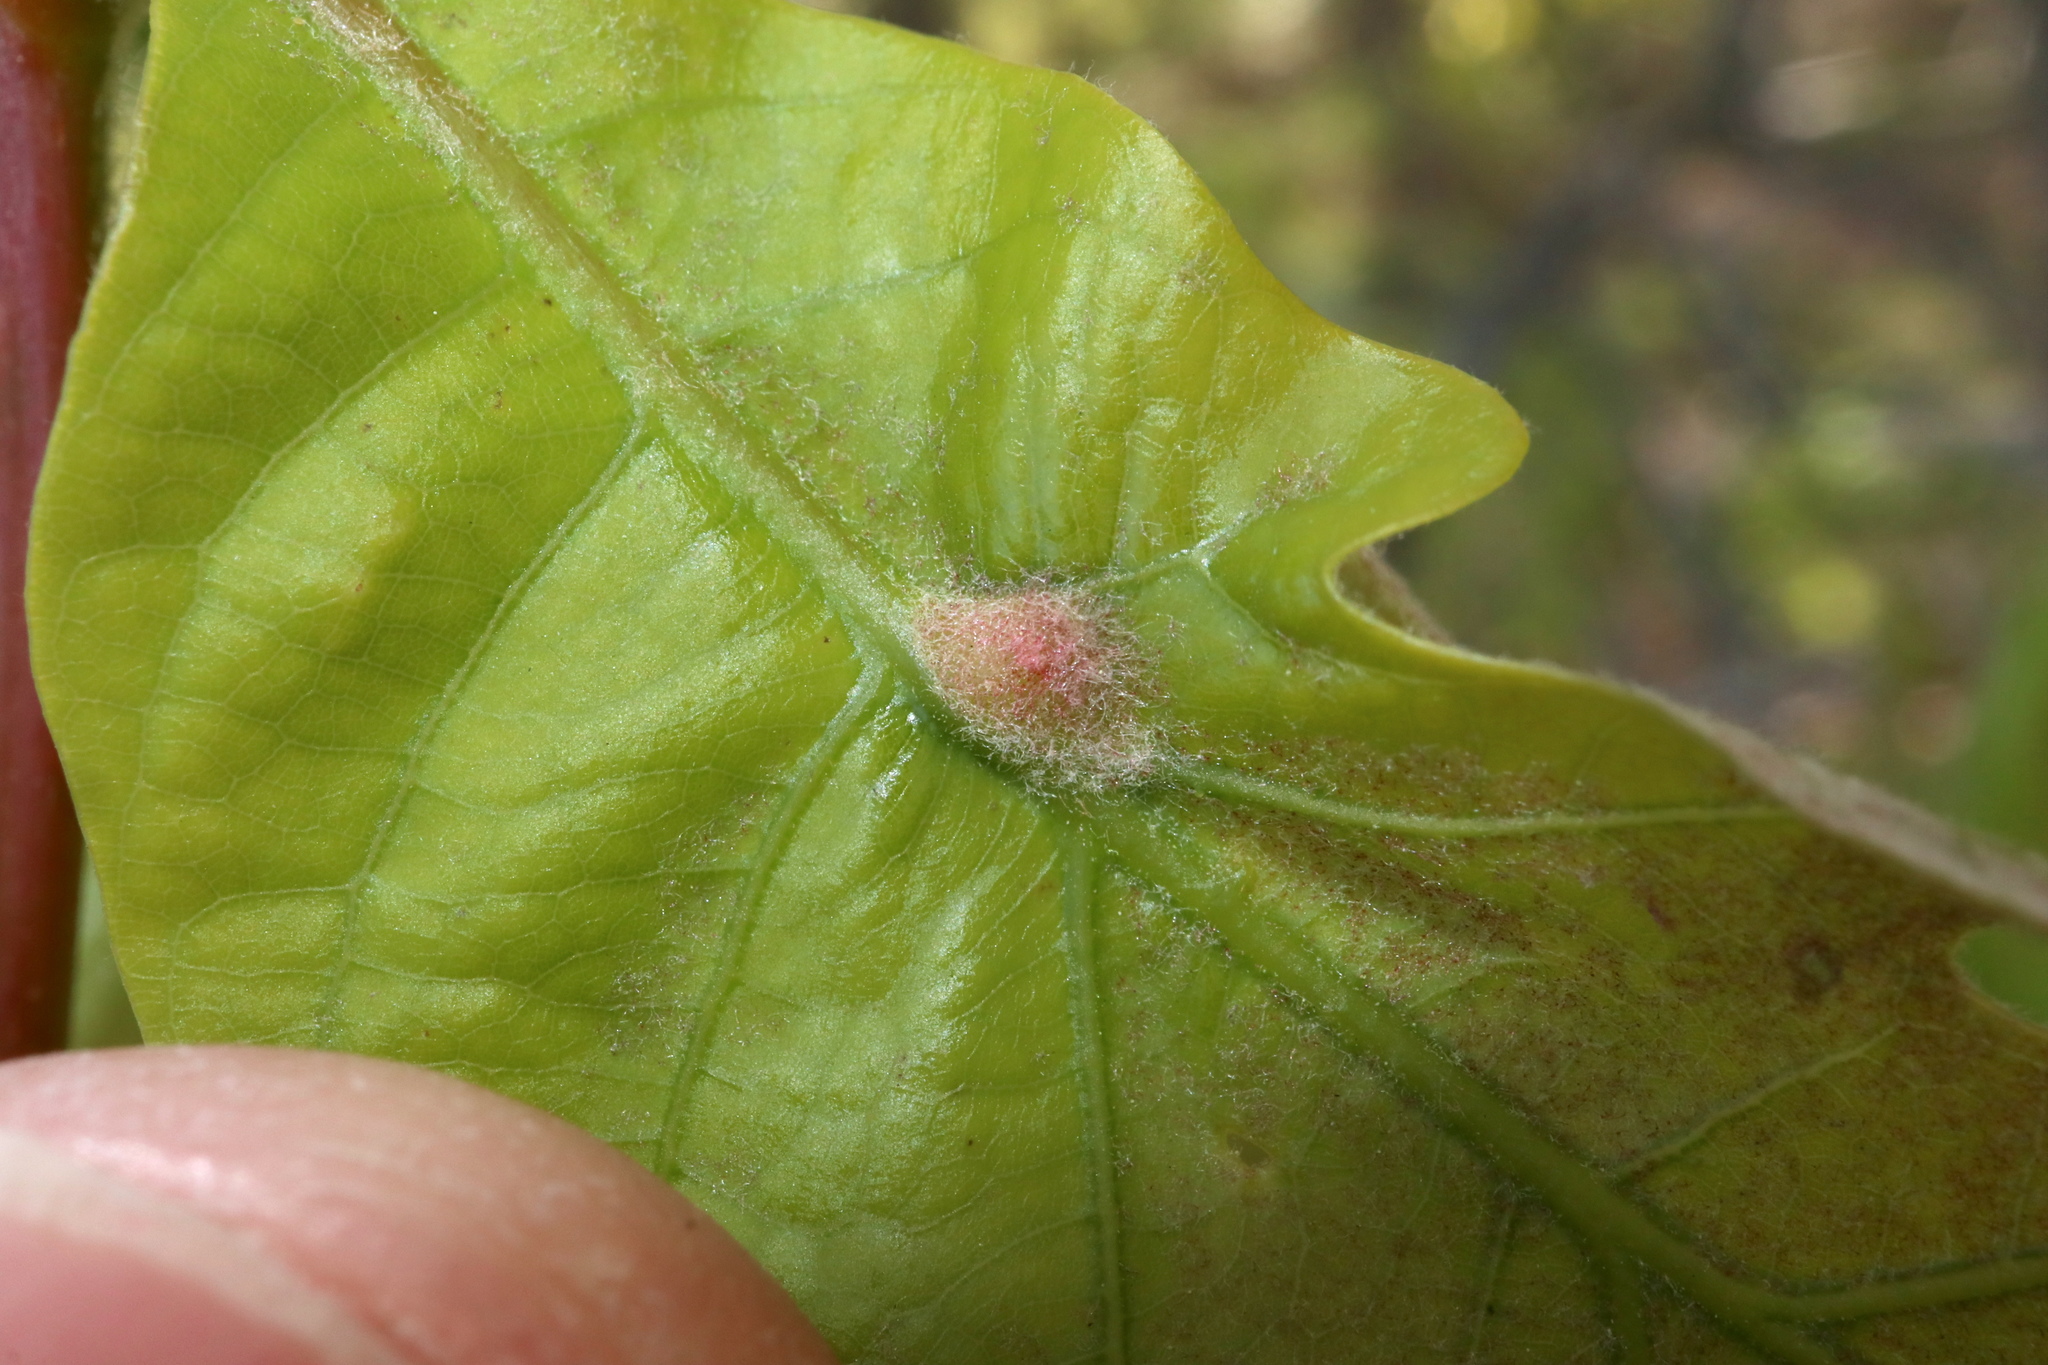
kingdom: Animalia
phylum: Arthropoda
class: Insecta
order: Hymenoptera
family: Cynipidae
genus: Andricus
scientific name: Andricus
